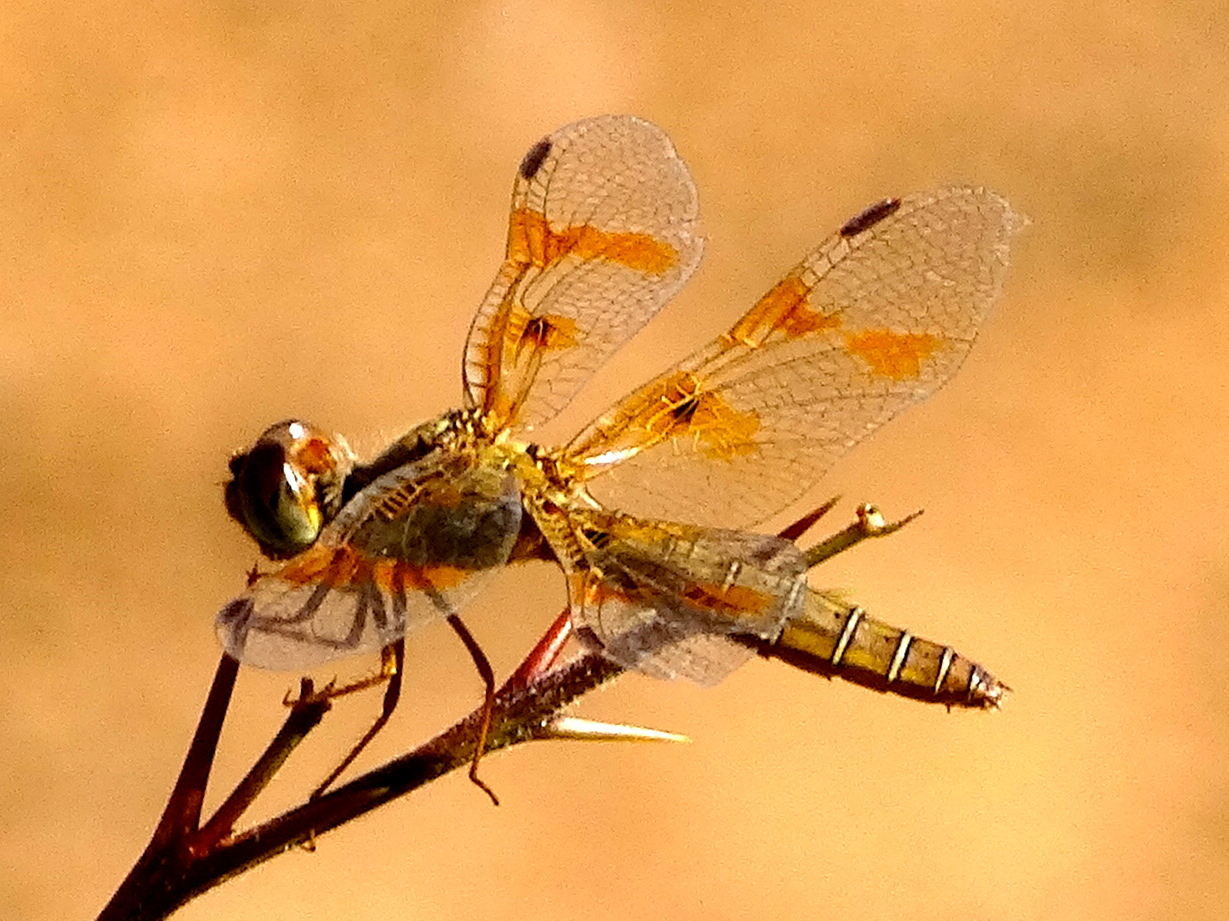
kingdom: Animalia
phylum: Arthropoda
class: Insecta
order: Odonata
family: Libellulidae
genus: Perithemis
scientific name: Perithemis intensa
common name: Mexican amberwing
